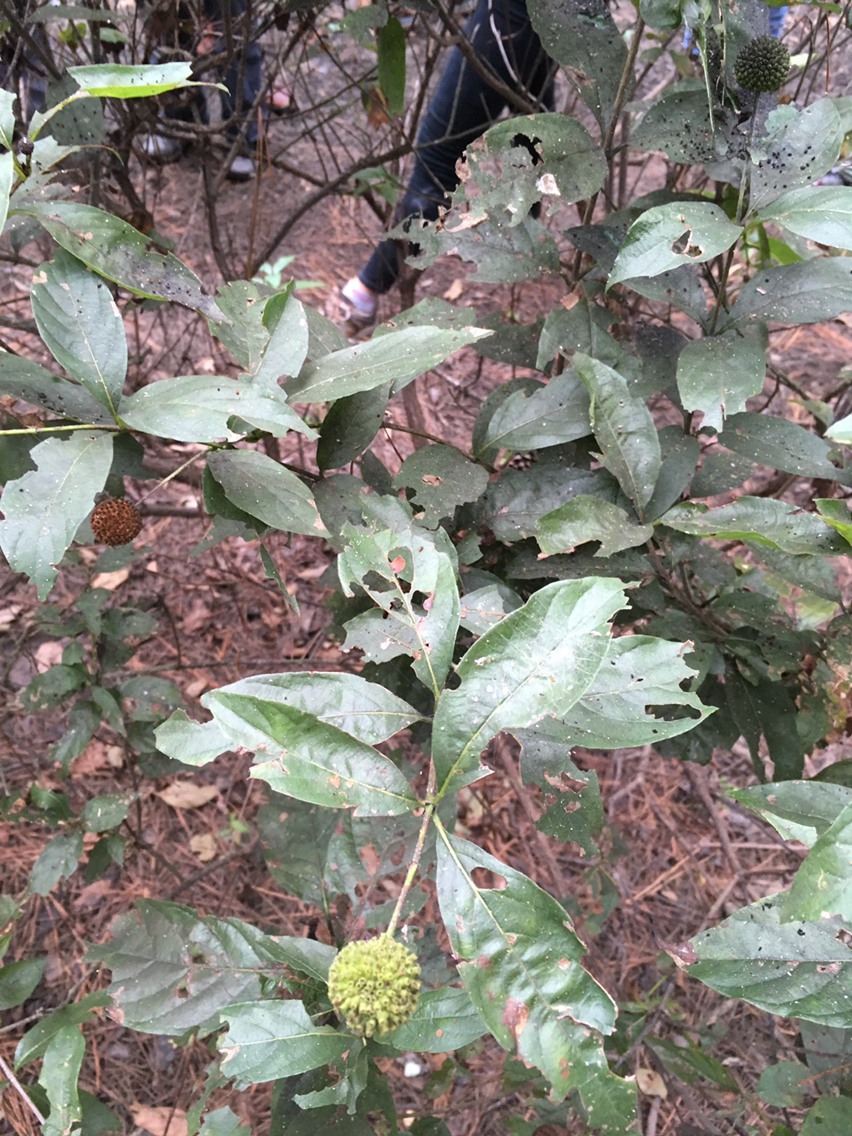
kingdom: Plantae
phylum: Tracheophyta
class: Magnoliopsida
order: Gentianales
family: Rubiaceae
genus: Cephalanthus
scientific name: Cephalanthus occidentalis
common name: Button-willow
